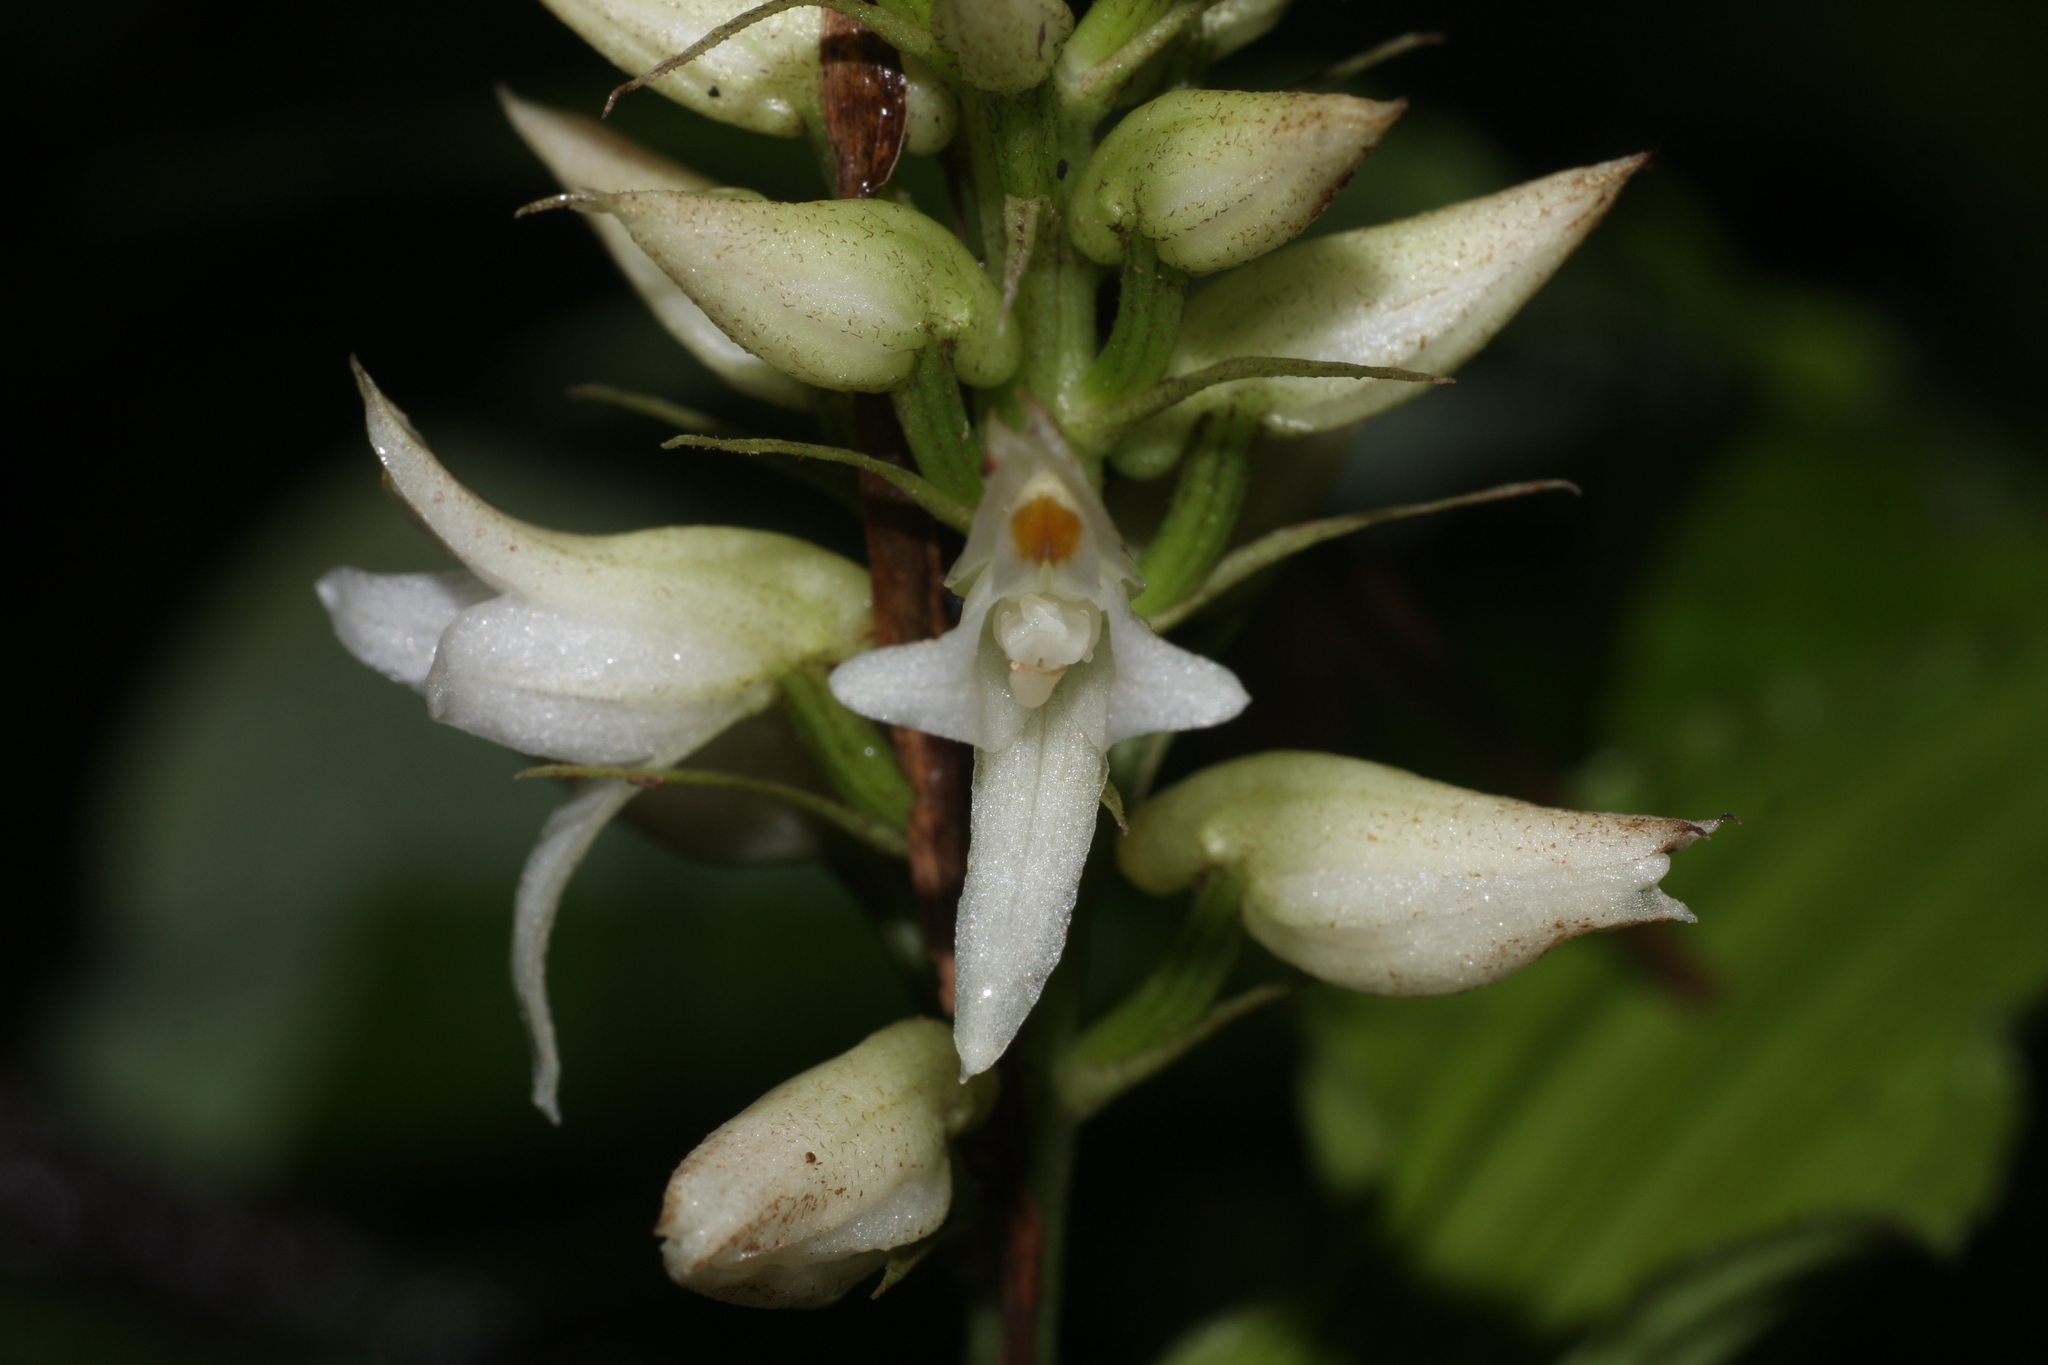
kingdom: Plantae
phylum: Tracheophyta
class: Liliopsida
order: Asparagales
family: Orchidaceae
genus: Tropidia
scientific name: Tropidia angulosa
